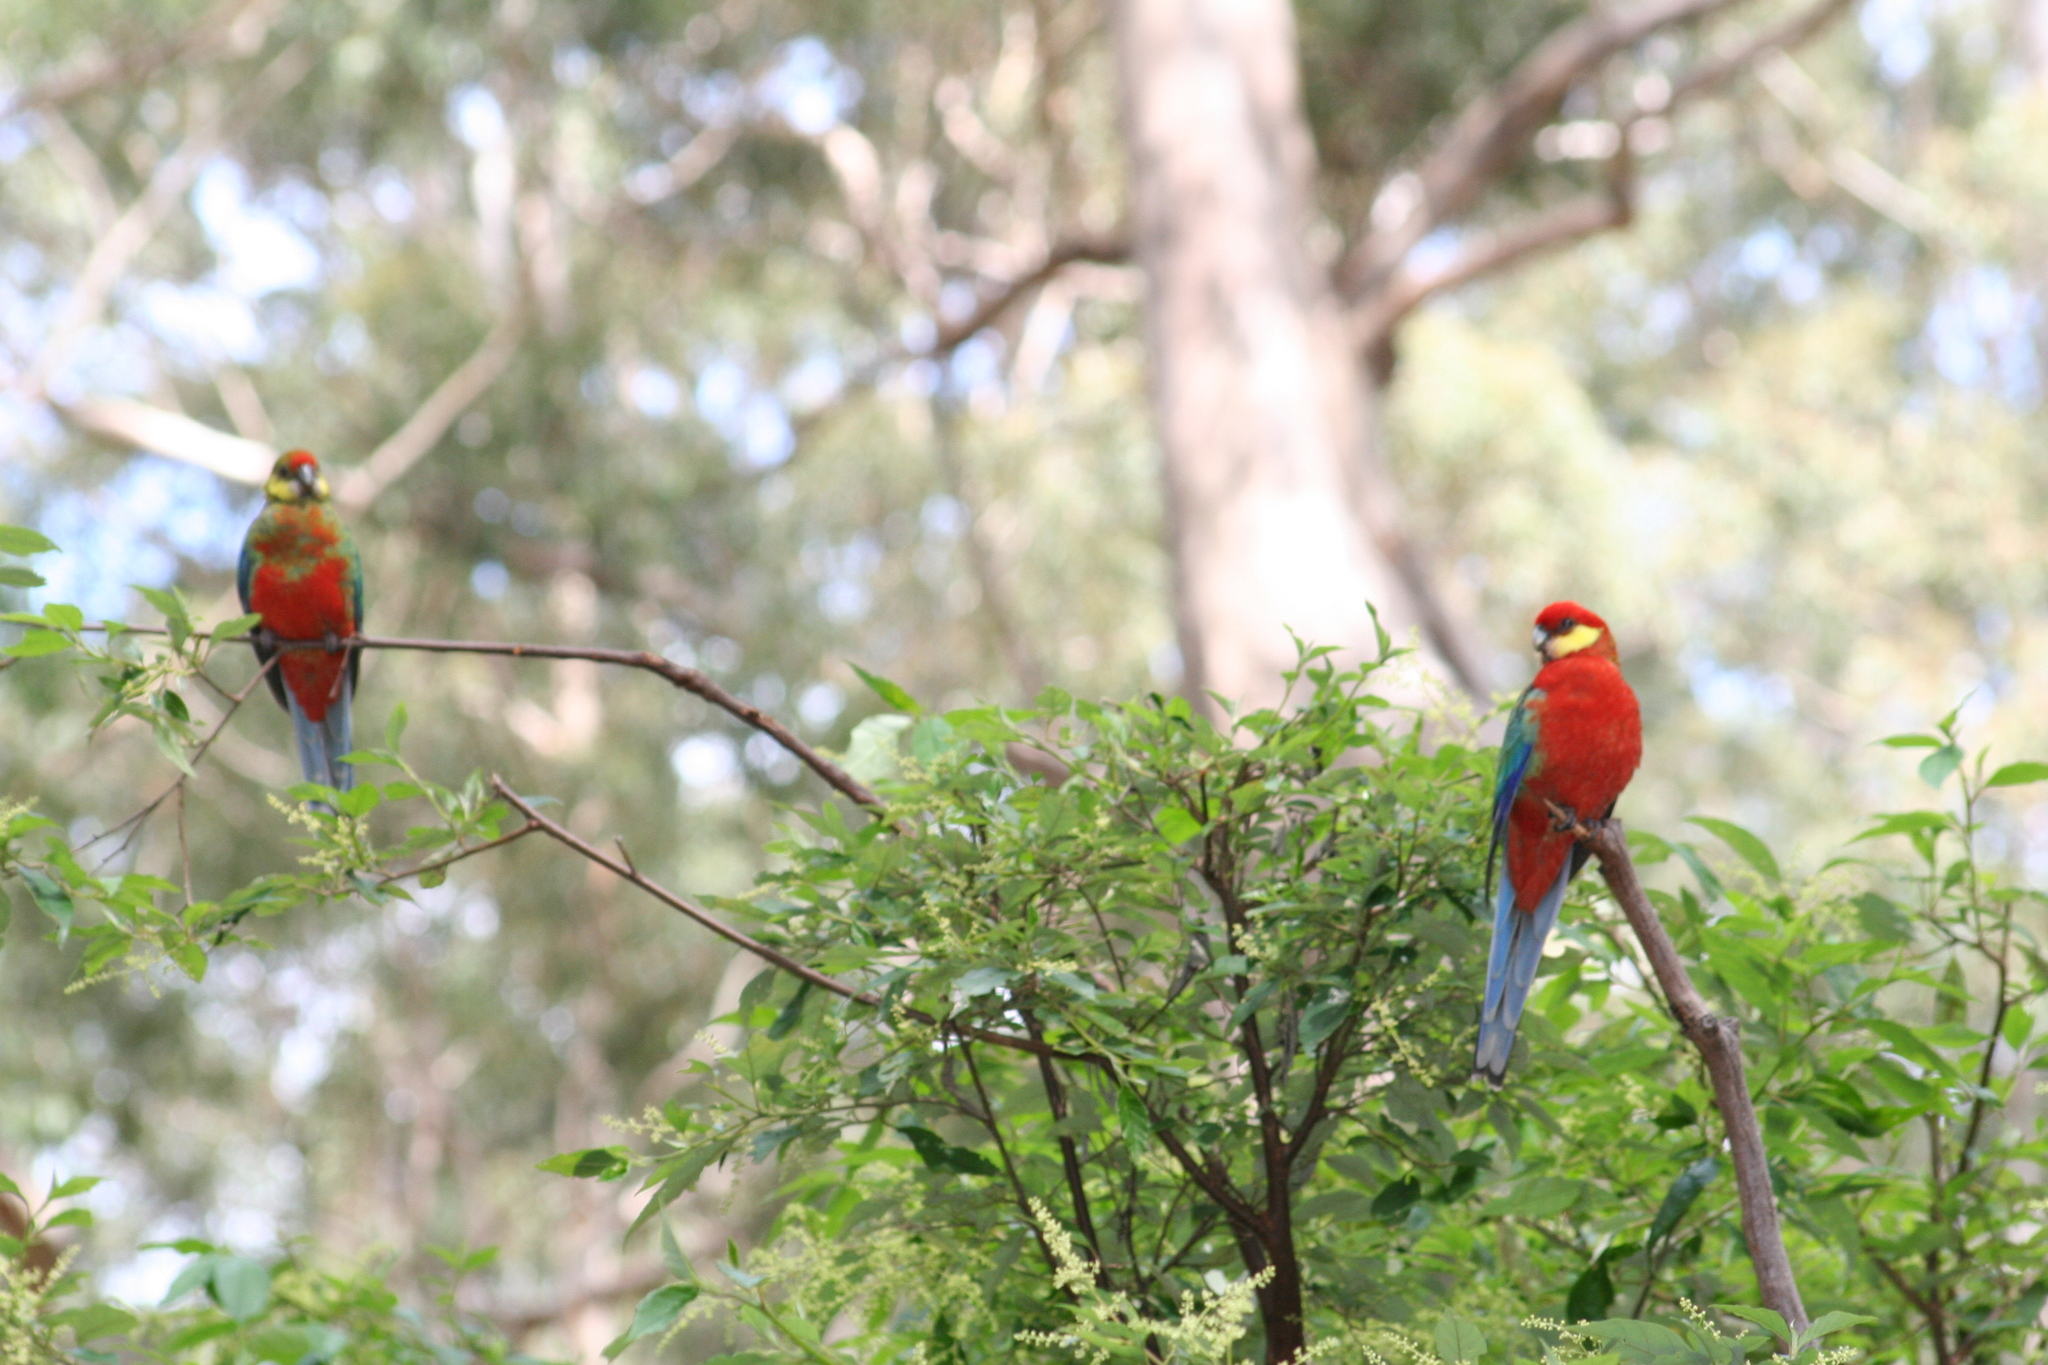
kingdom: Animalia
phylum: Chordata
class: Aves
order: Psittaciformes
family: Psittacidae
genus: Platycercus
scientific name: Platycercus icterotis
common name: Western rosella
